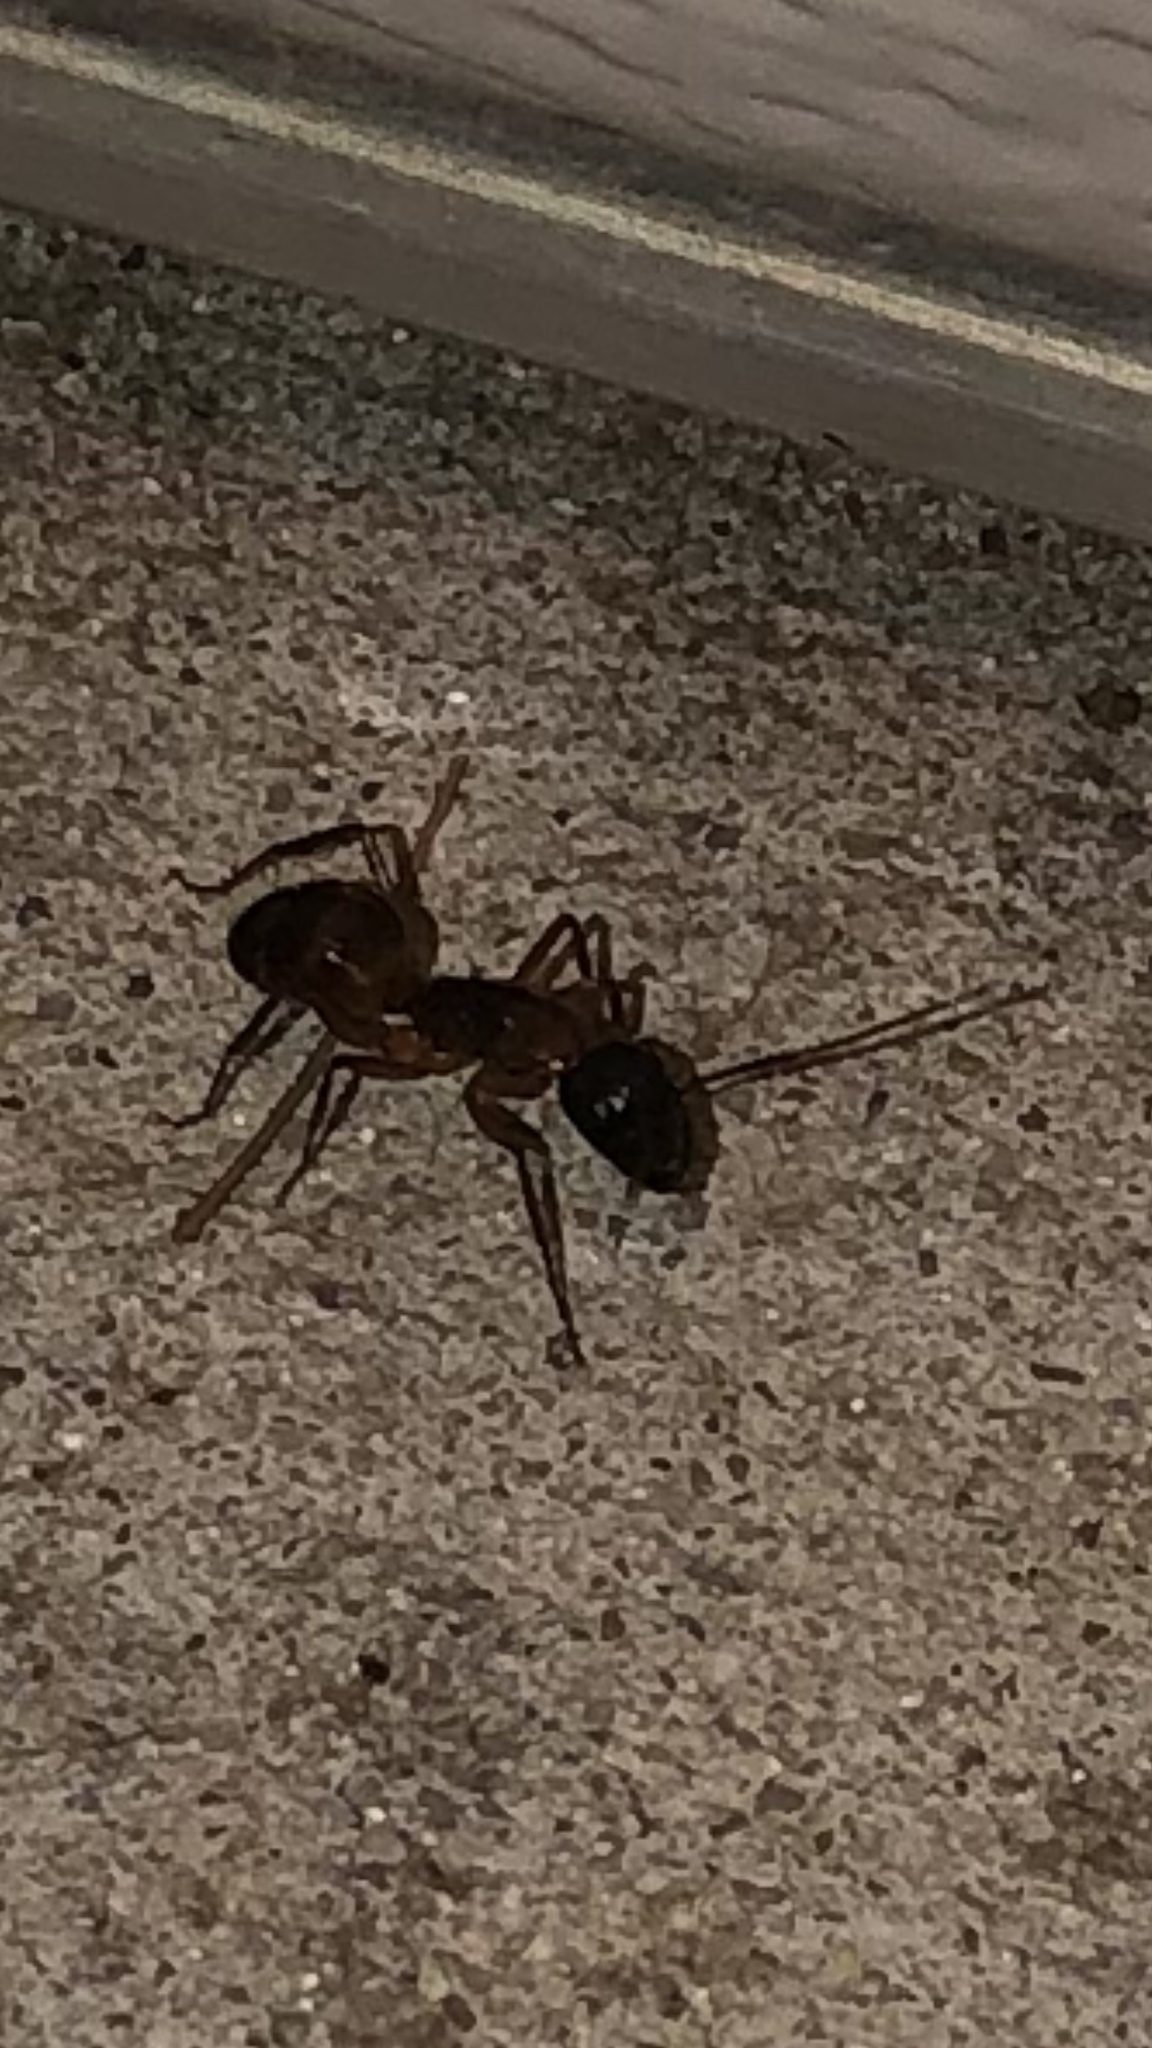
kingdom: Animalia
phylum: Arthropoda
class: Insecta
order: Hymenoptera
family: Formicidae
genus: Camponotus
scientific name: Camponotus americanus
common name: American carpenter ant
